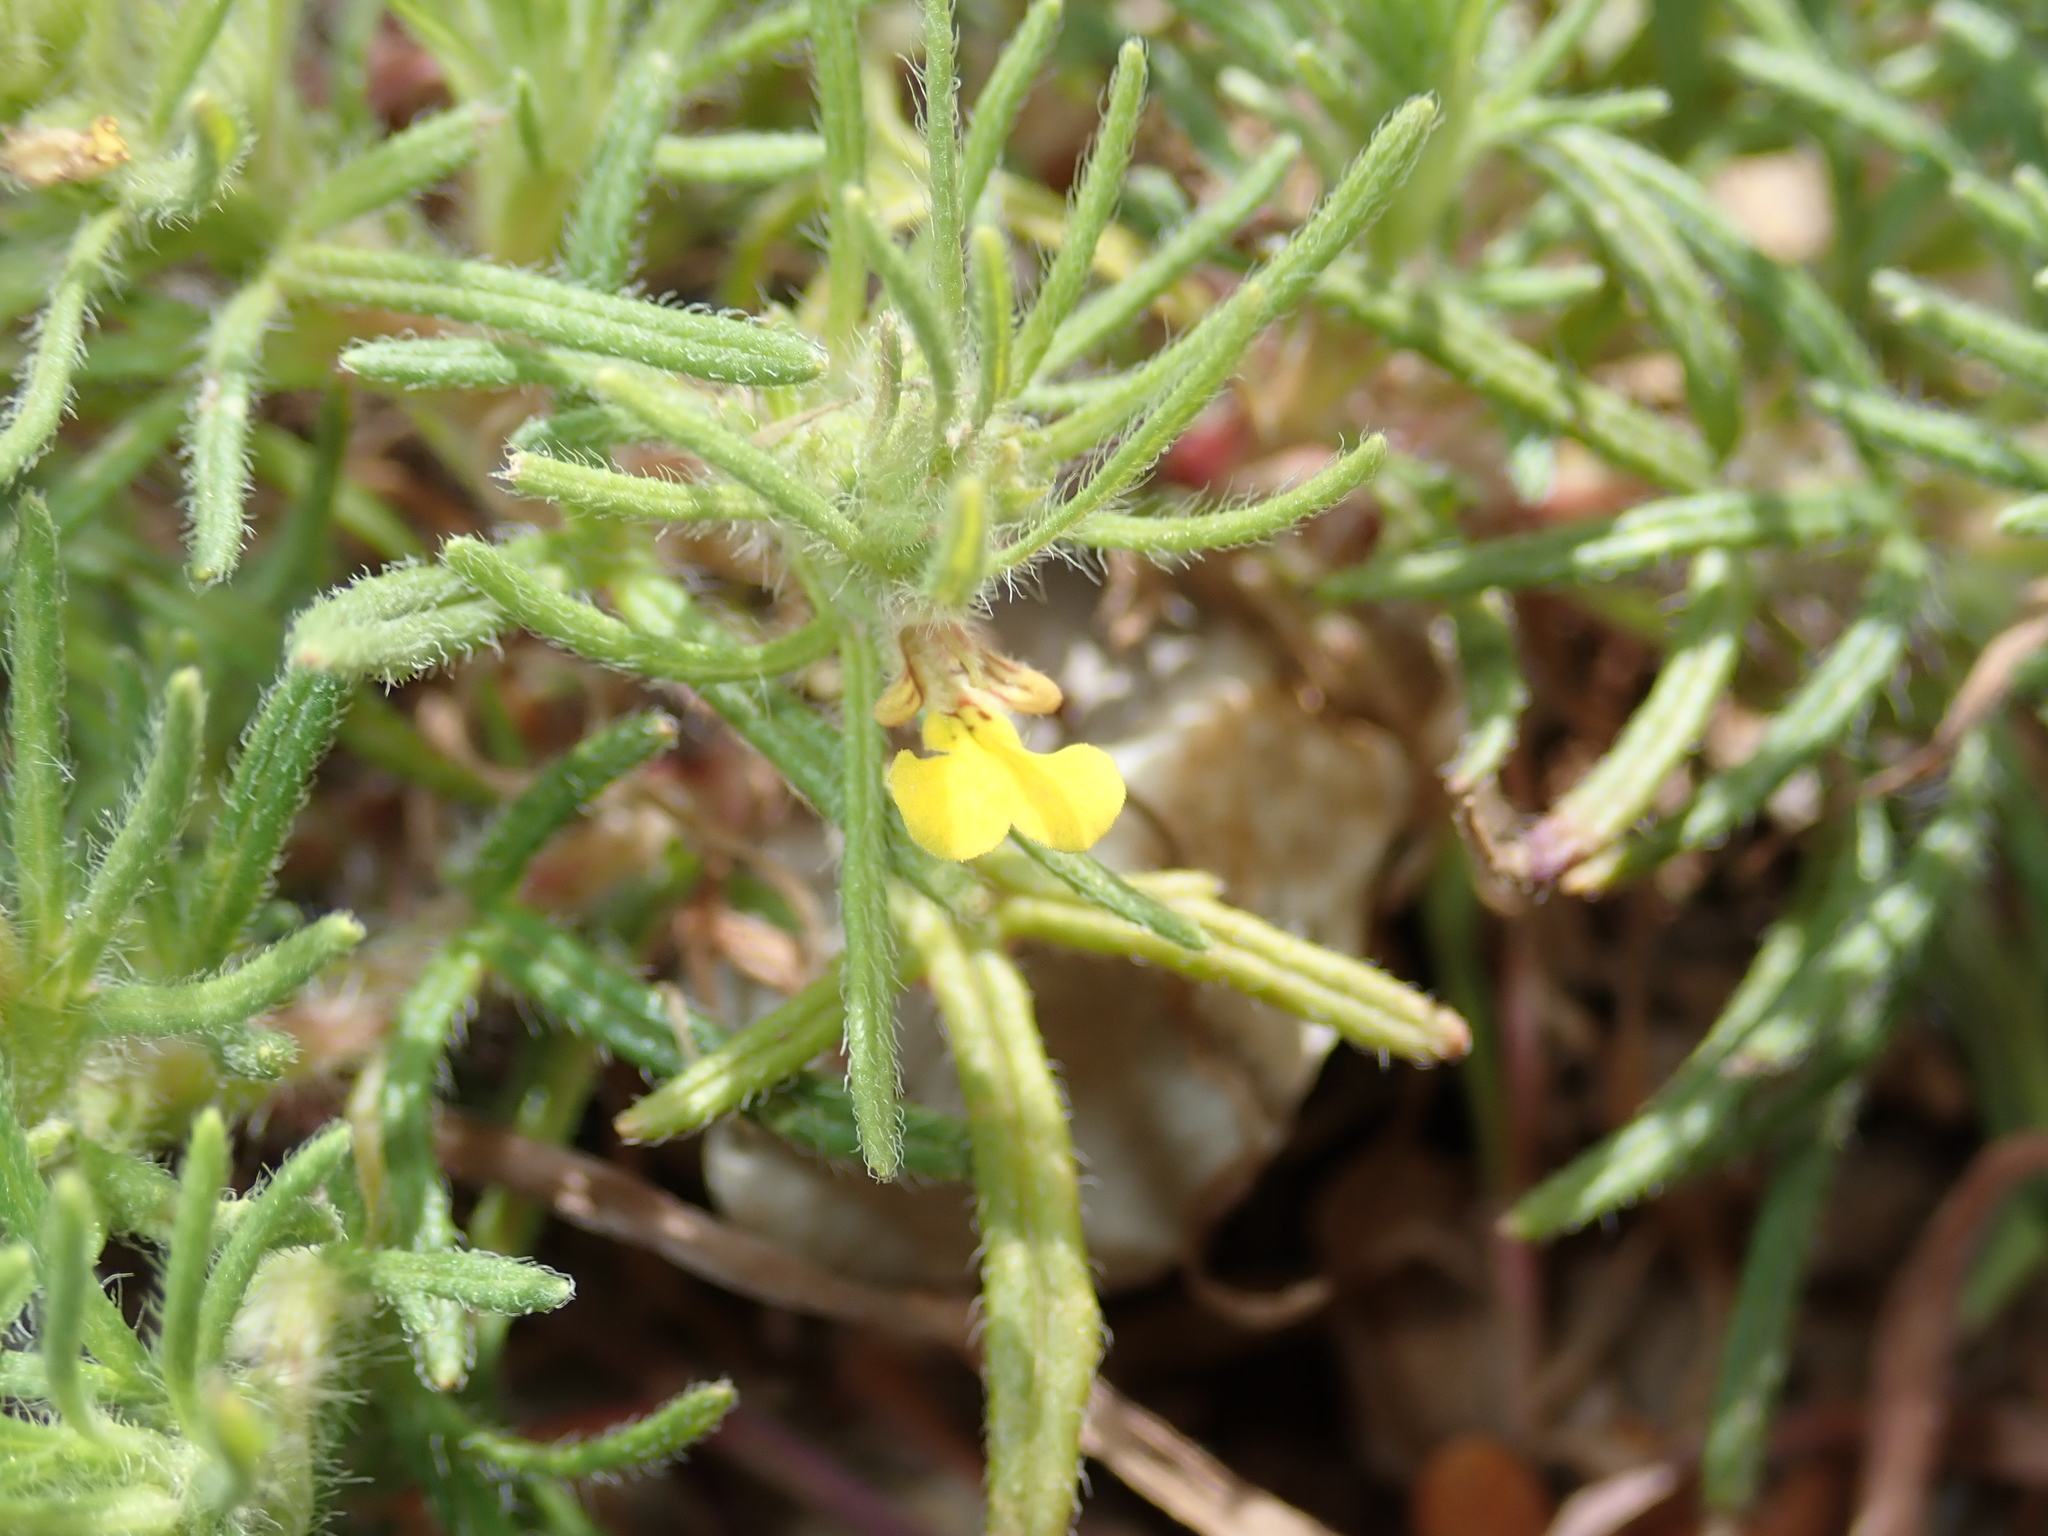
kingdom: Plantae
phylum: Tracheophyta
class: Magnoliopsida
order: Lamiales
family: Lamiaceae
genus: Ajuga
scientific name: Ajuga chamaepitys
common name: Ground-pine
